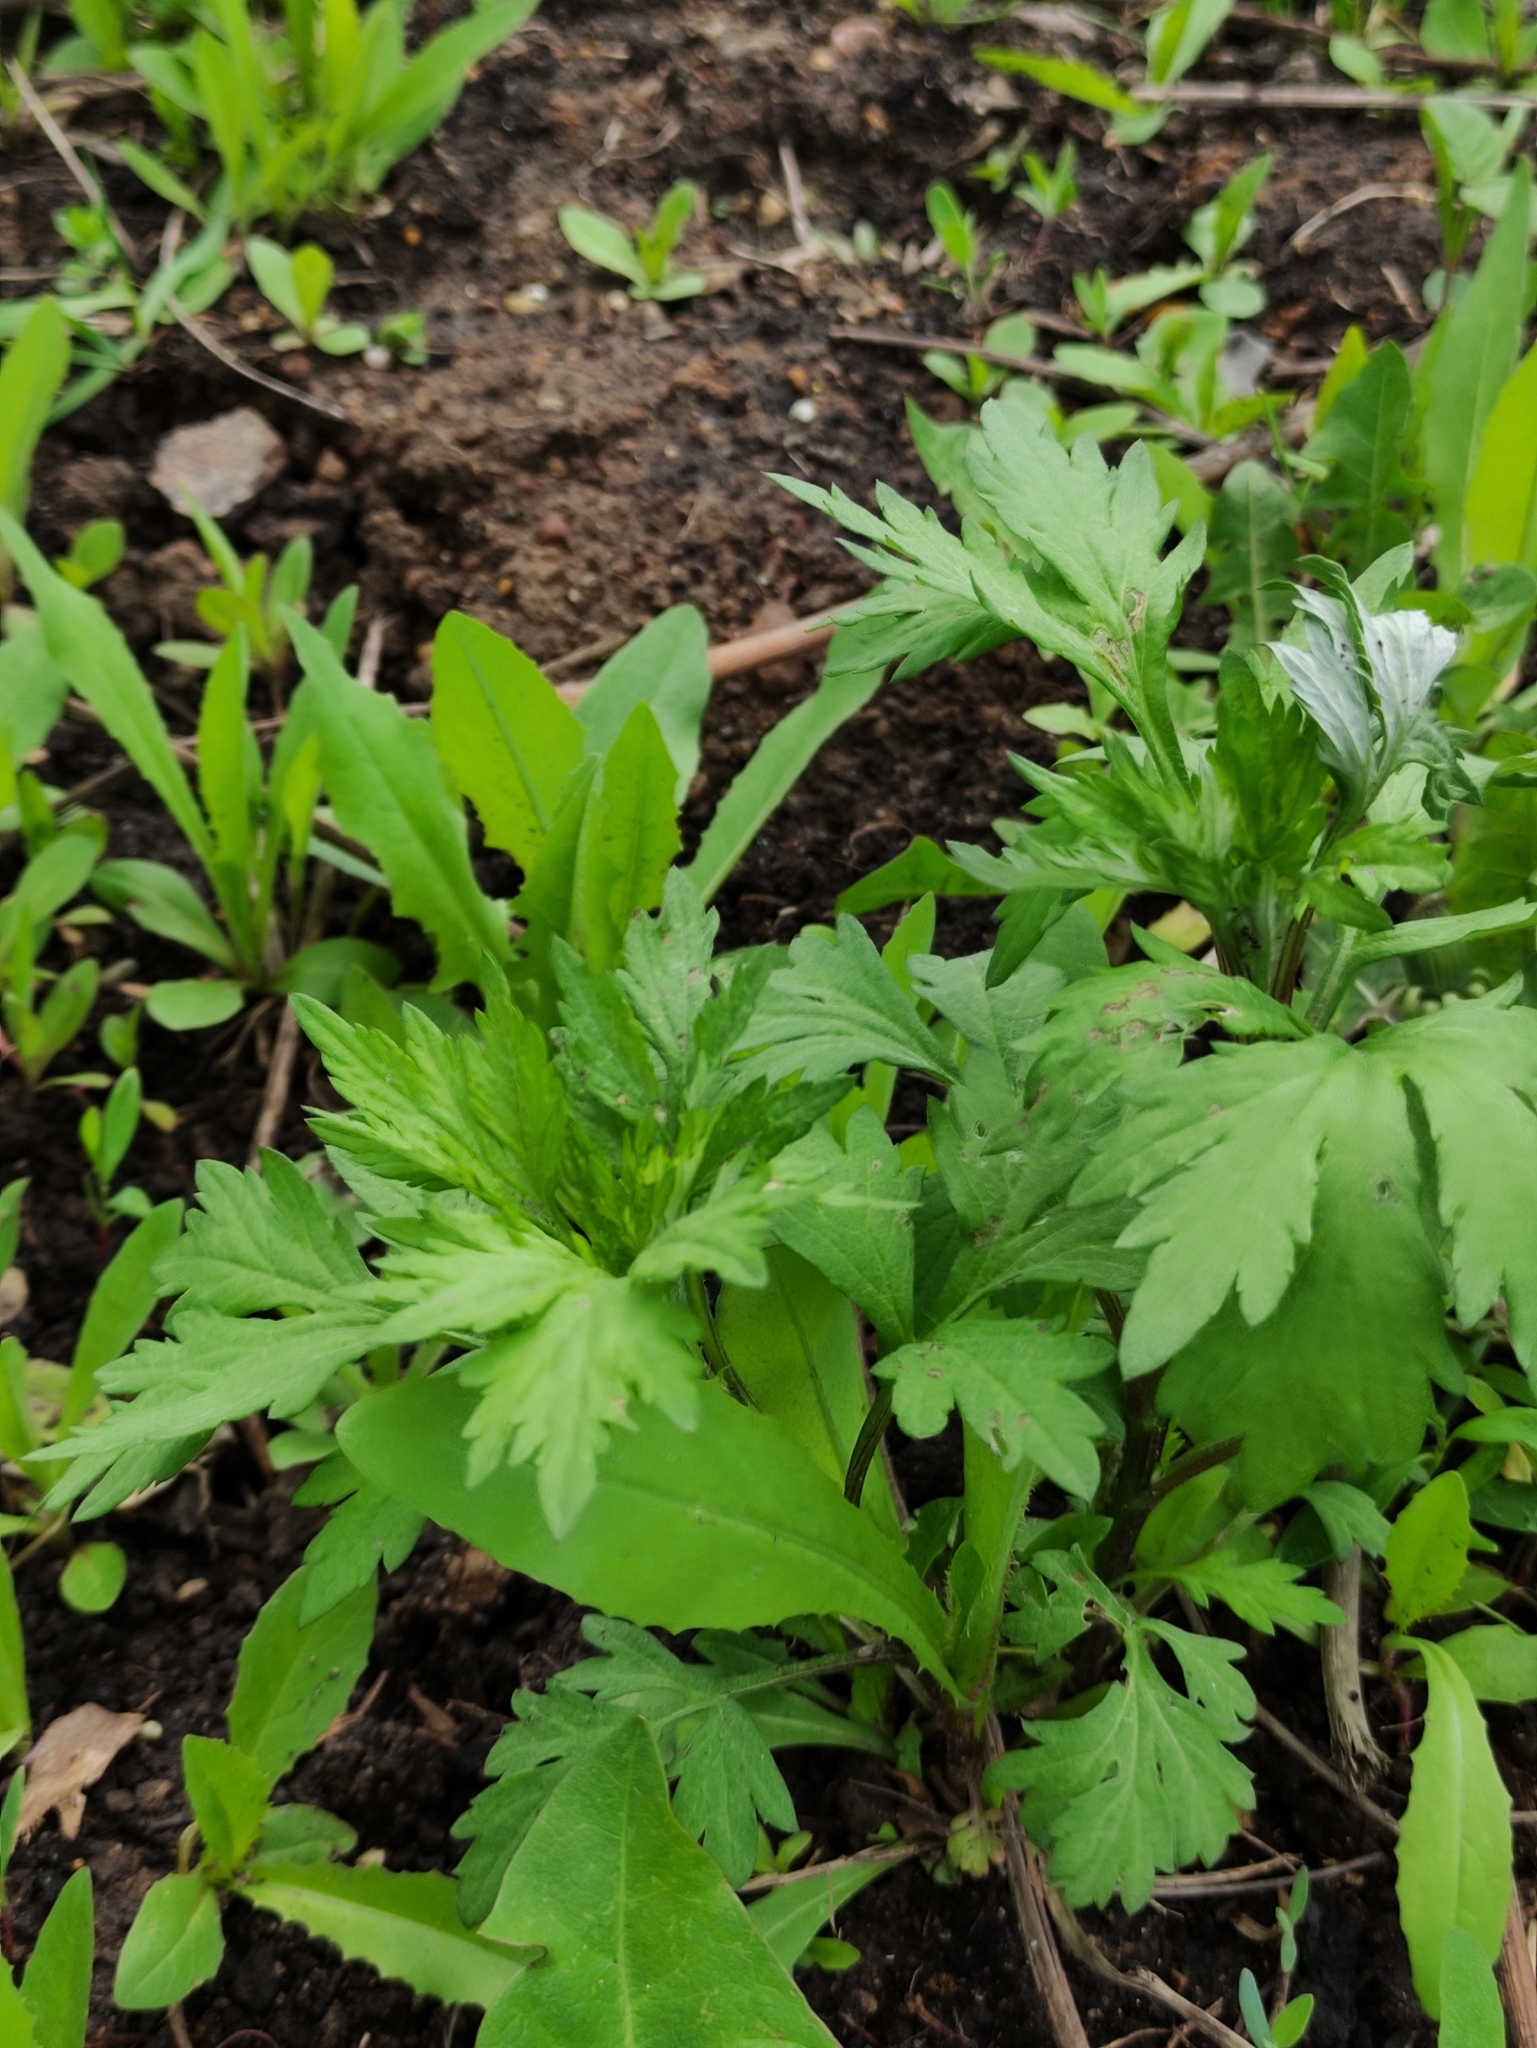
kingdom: Plantae
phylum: Tracheophyta
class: Magnoliopsida
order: Asterales
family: Asteraceae
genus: Artemisia
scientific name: Artemisia vulgaris
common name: Mugwort
